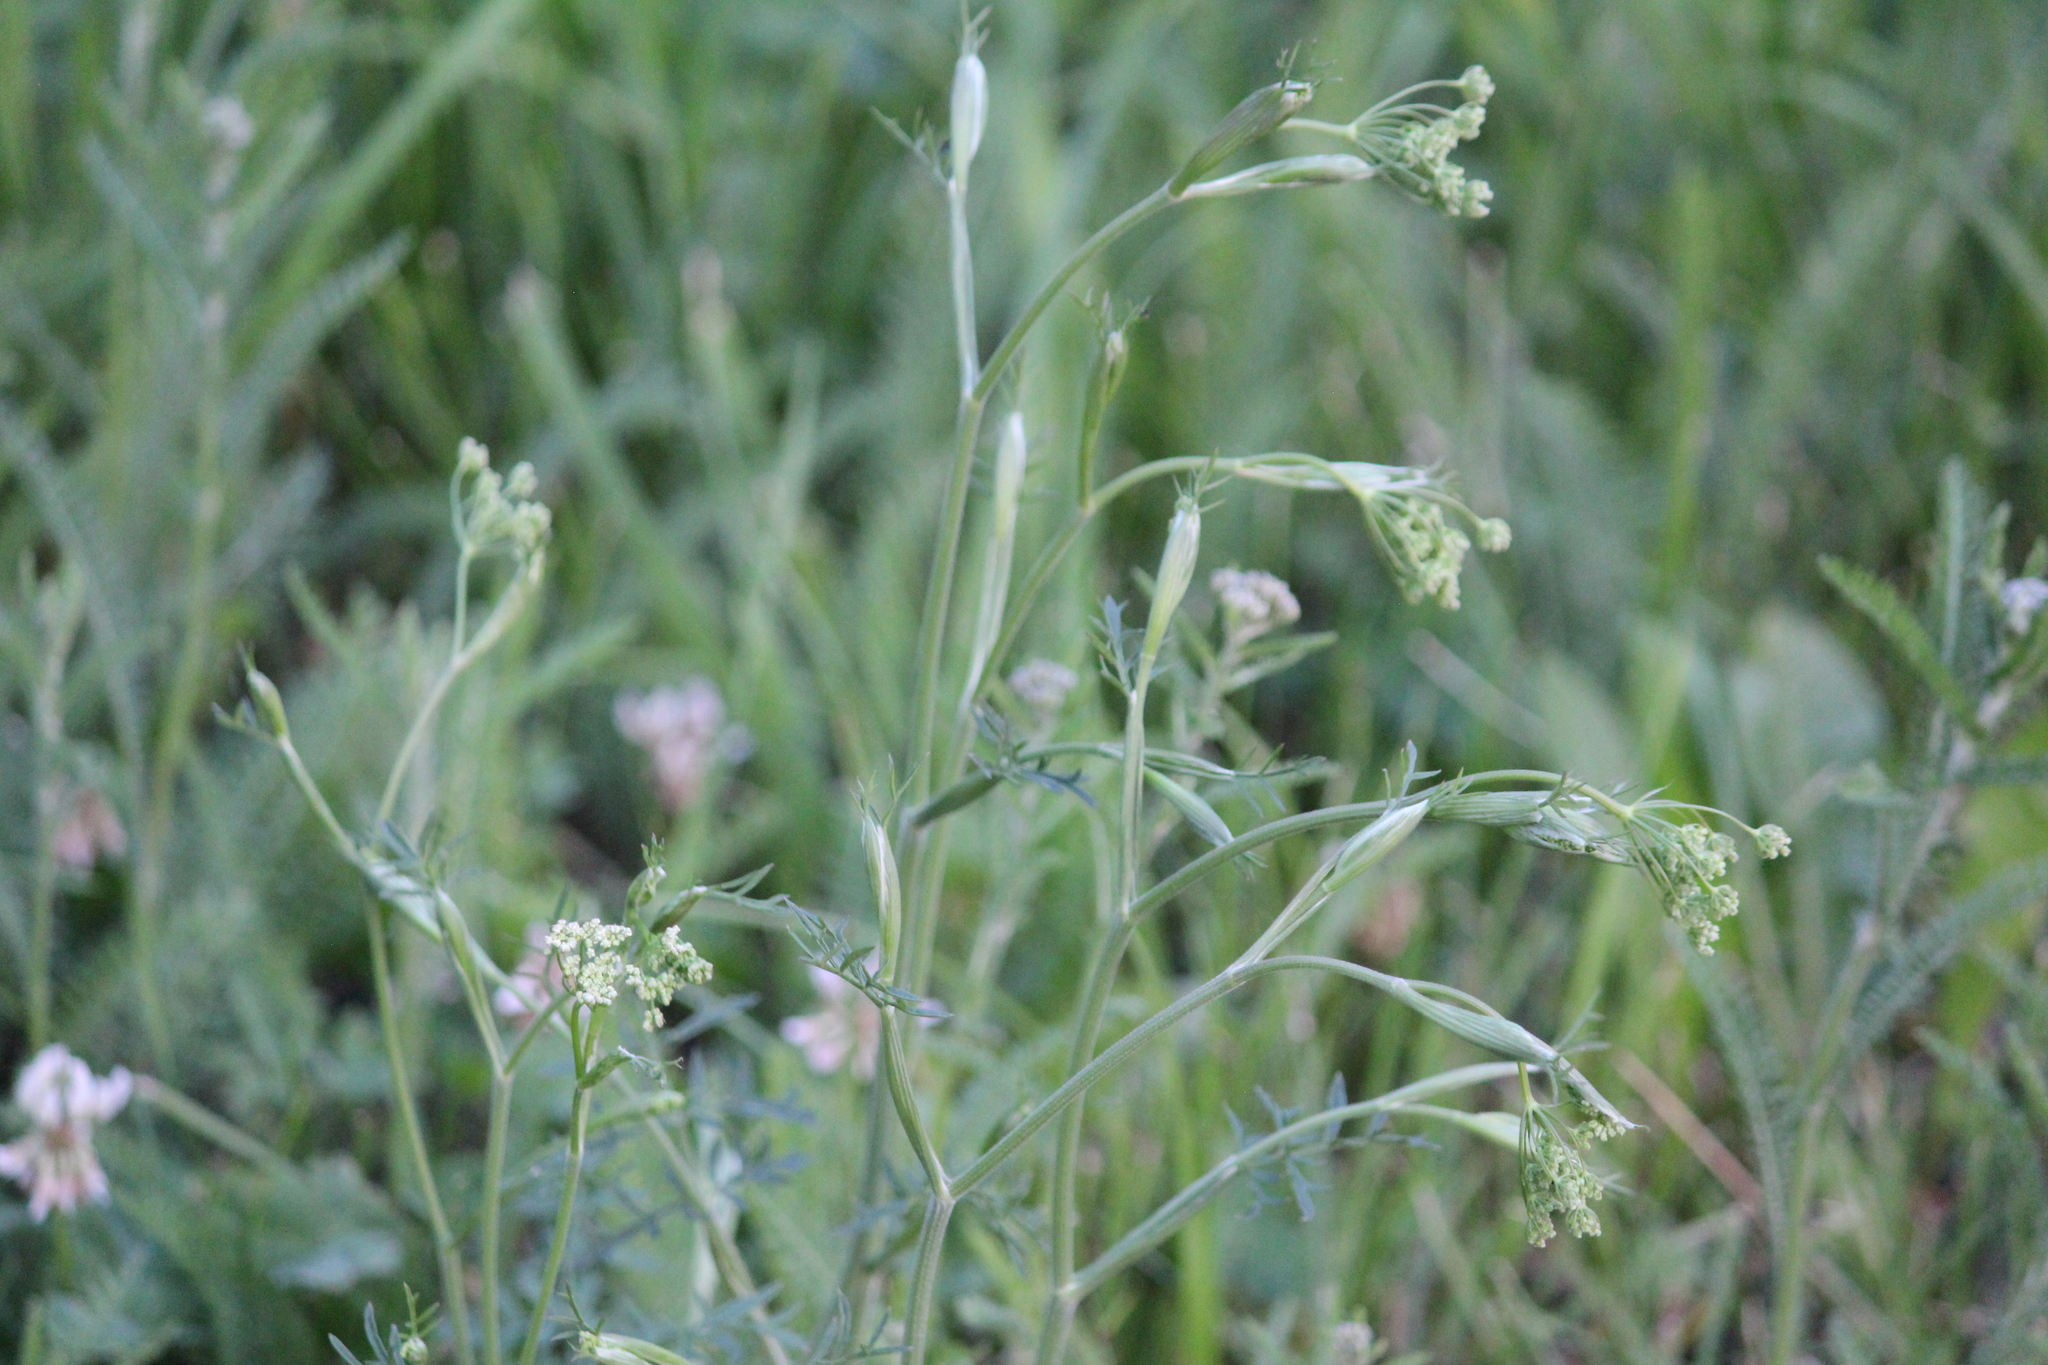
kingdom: Plantae
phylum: Tracheophyta
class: Magnoliopsida
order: Apiales
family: Apiaceae
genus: Pimpinella
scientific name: Pimpinella saxifraga
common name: Burnet-saxifrage
